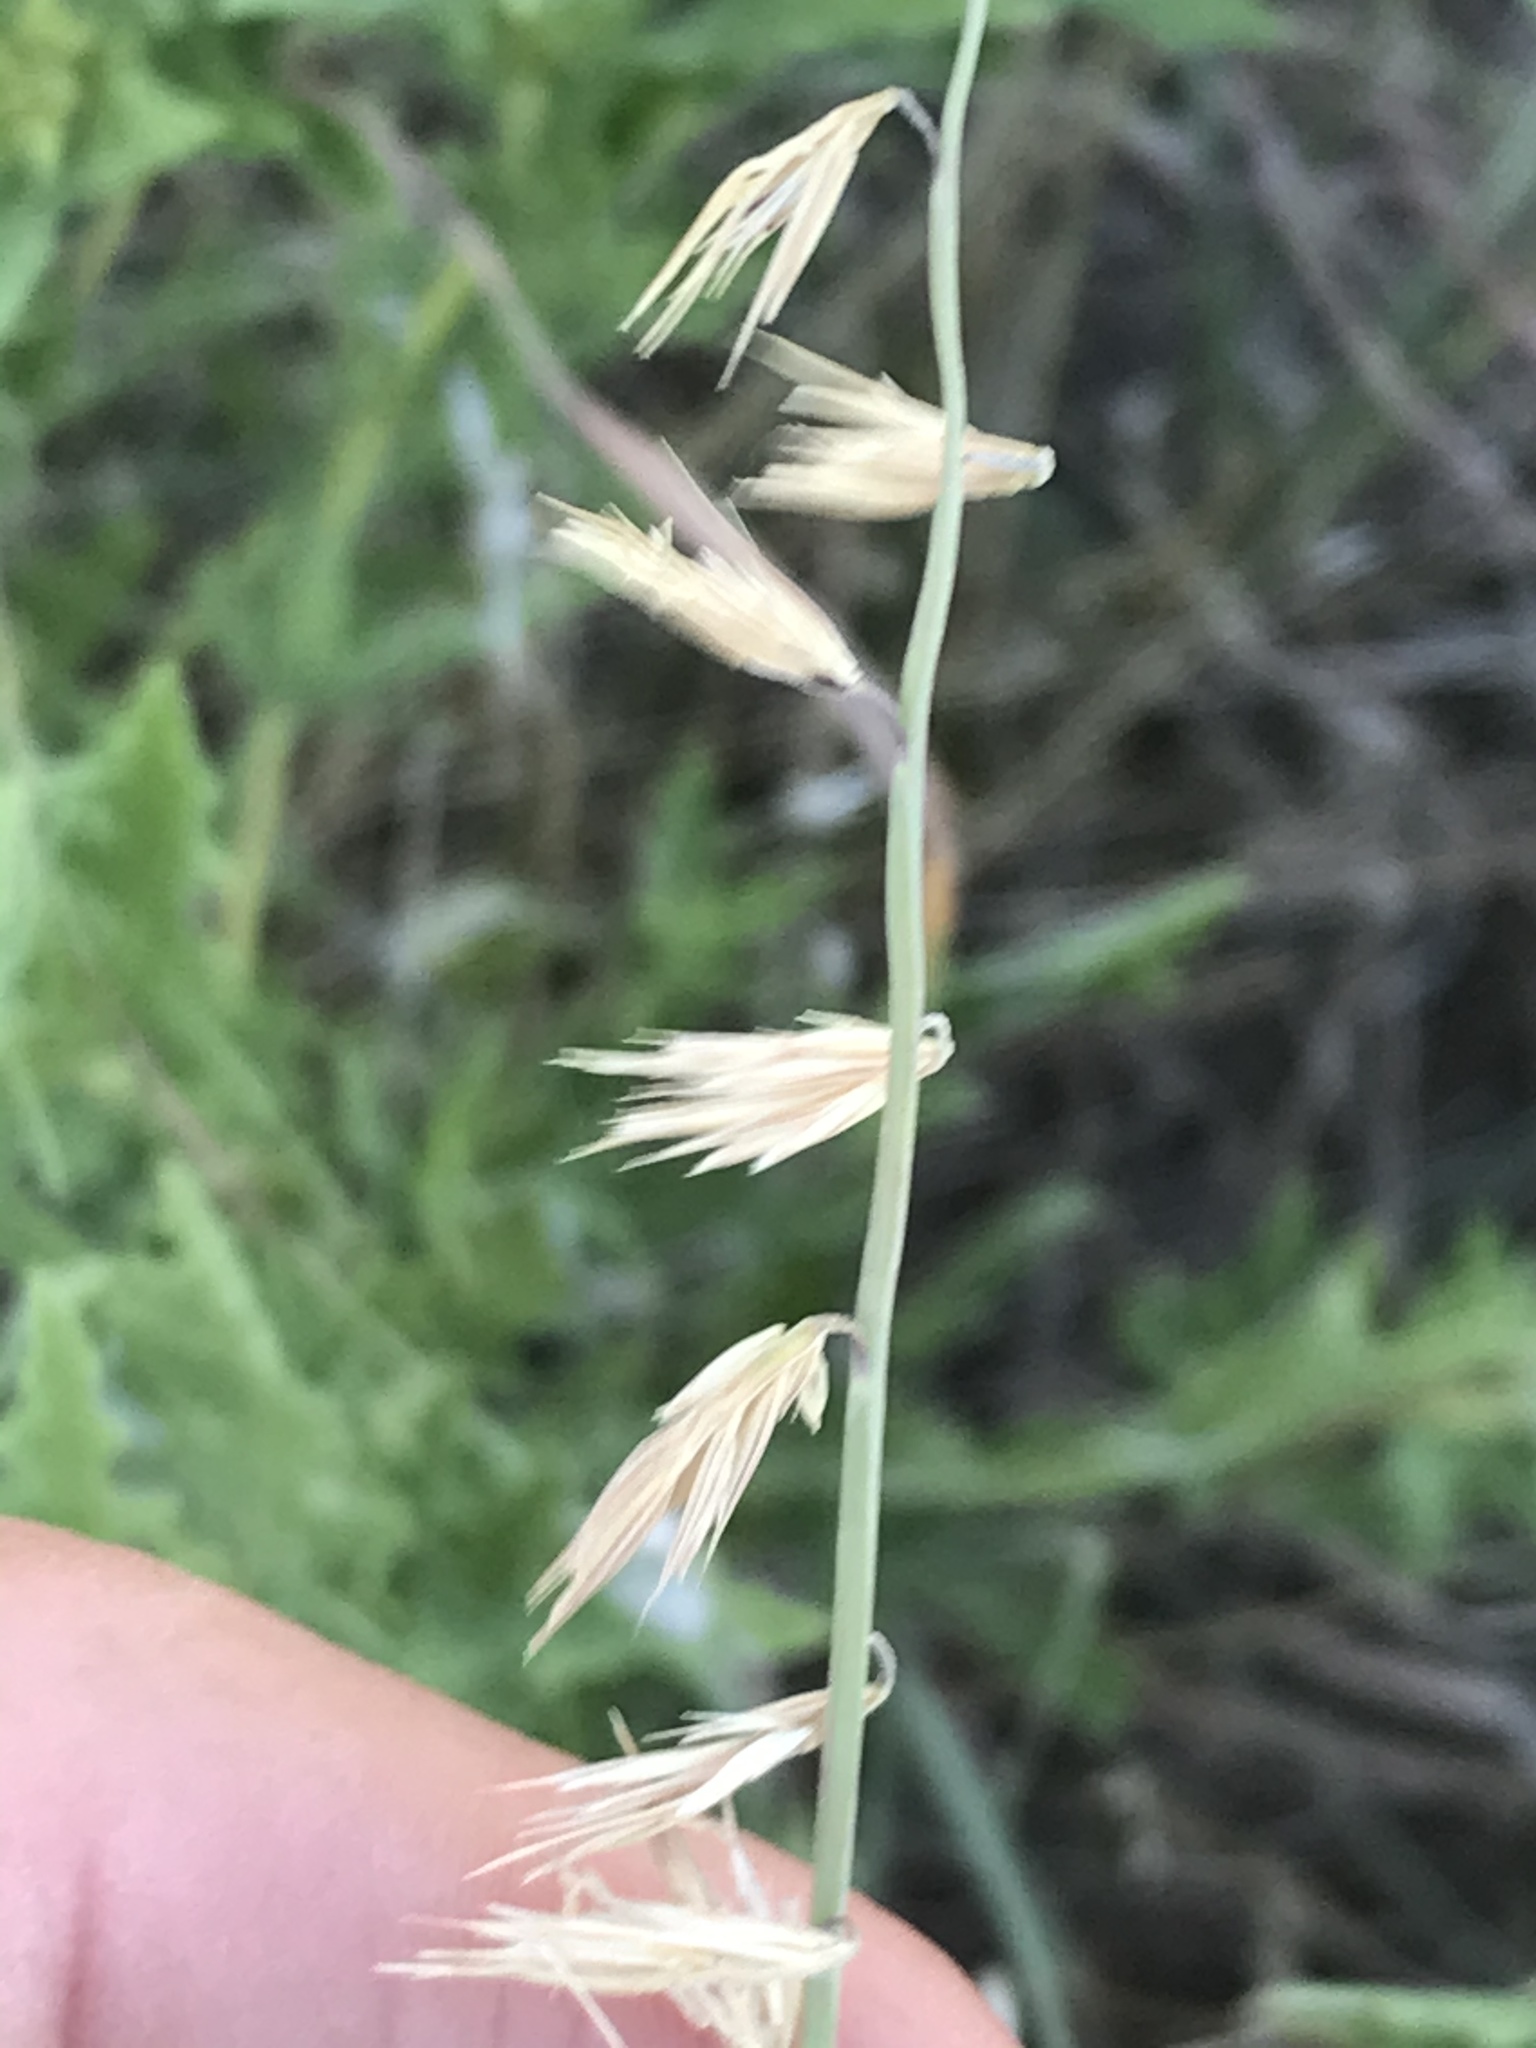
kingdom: Plantae
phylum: Tracheophyta
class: Liliopsida
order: Poales
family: Poaceae
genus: Bouteloua
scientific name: Bouteloua curtipendula
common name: Side-oats grama
